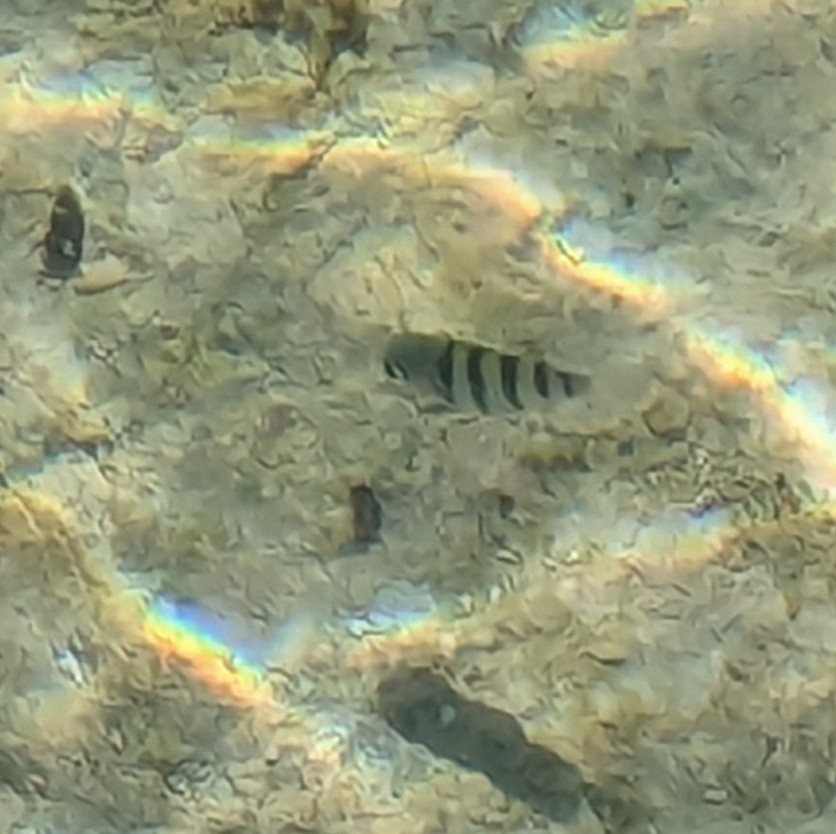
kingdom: Animalia
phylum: Chordata
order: Perciformes
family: Pomacentridae
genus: Abudefduf
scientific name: Abudefduf saxatilis
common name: Sergeant major
